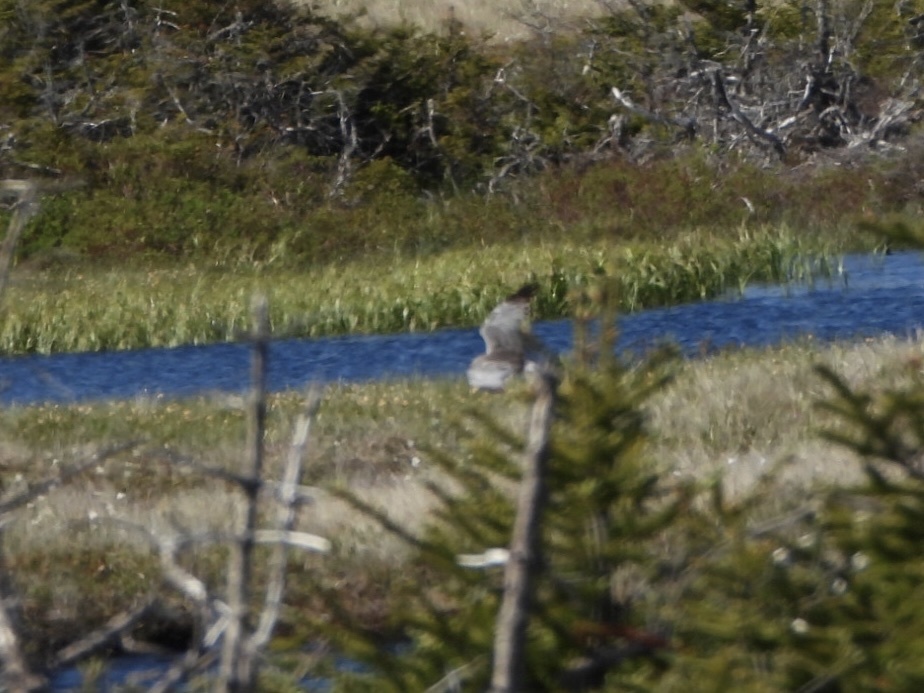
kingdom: Animalia
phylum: Chordata
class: Aves
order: Accipitriformes
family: Accipitridae
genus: Circus
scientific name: Circus cyaneus
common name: Hen harrier
